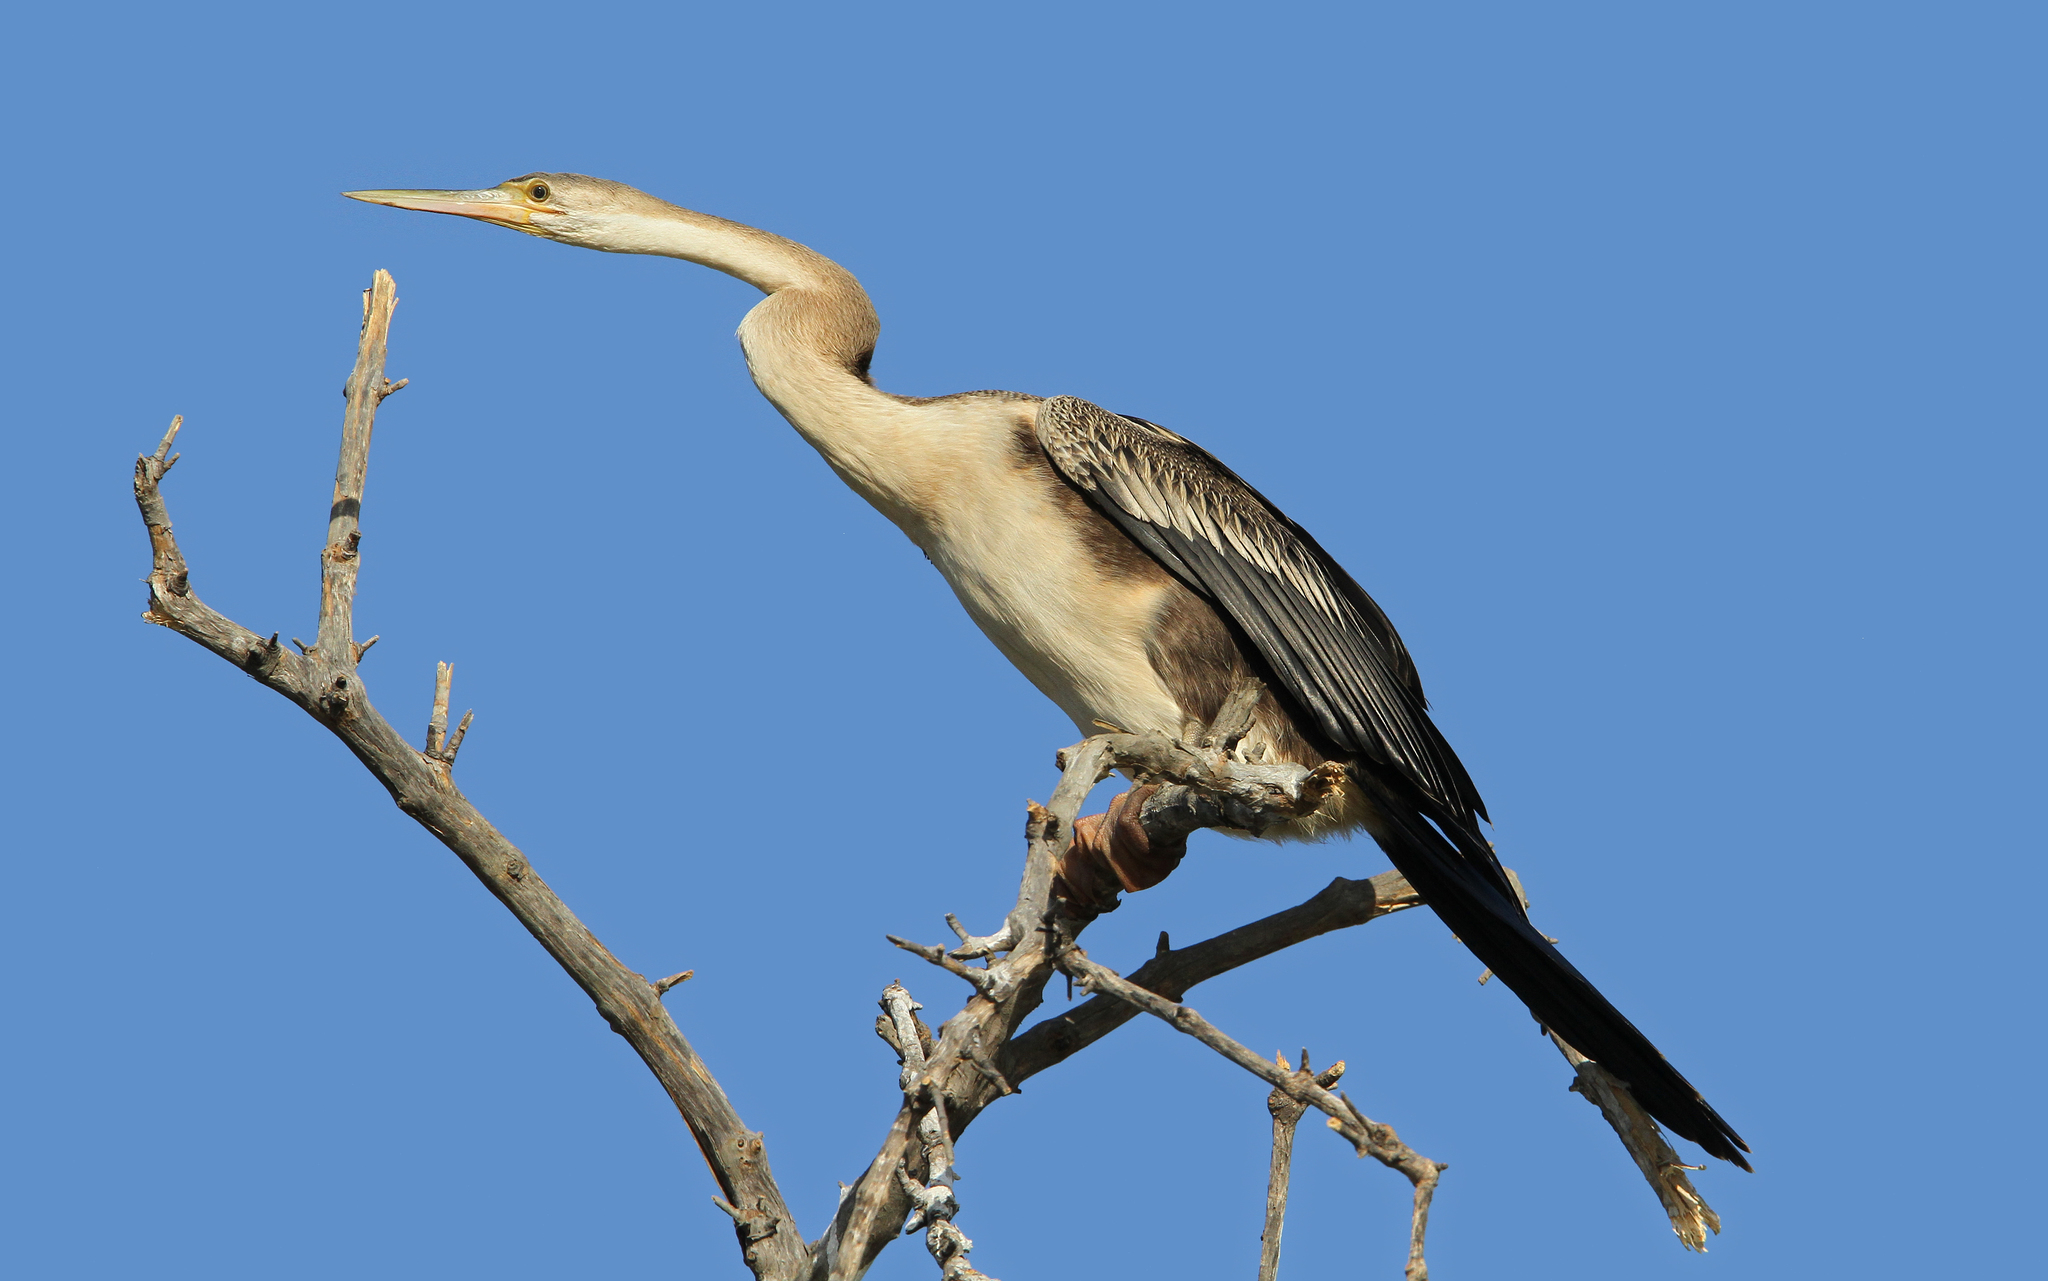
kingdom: Animalia
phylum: Chordata
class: Aves
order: Suliformes
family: Anhingidae
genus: Anhinga
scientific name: Anhinga rufa
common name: African darter
